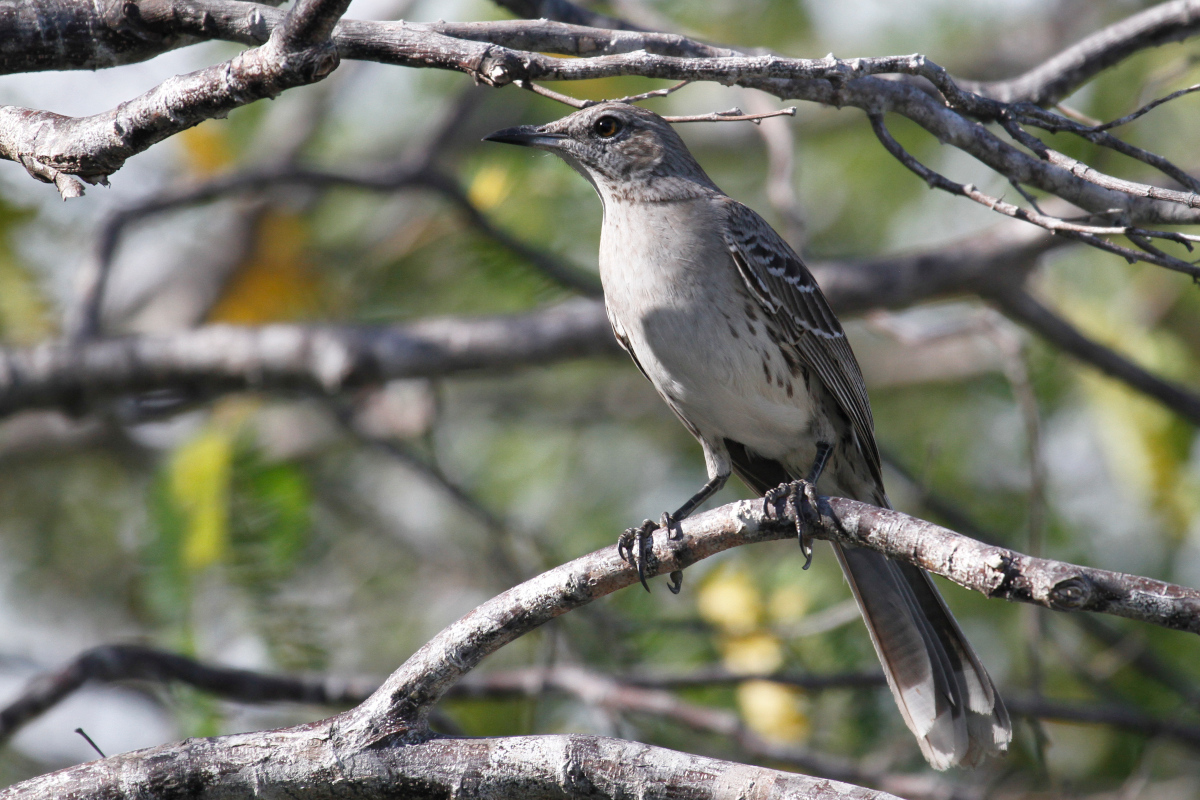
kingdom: Animalia
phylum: Chordata
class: Aves
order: Passeriformes
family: Mimidae
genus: Mimus
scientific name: Mimus gundlachii
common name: Bahama mockingbird
